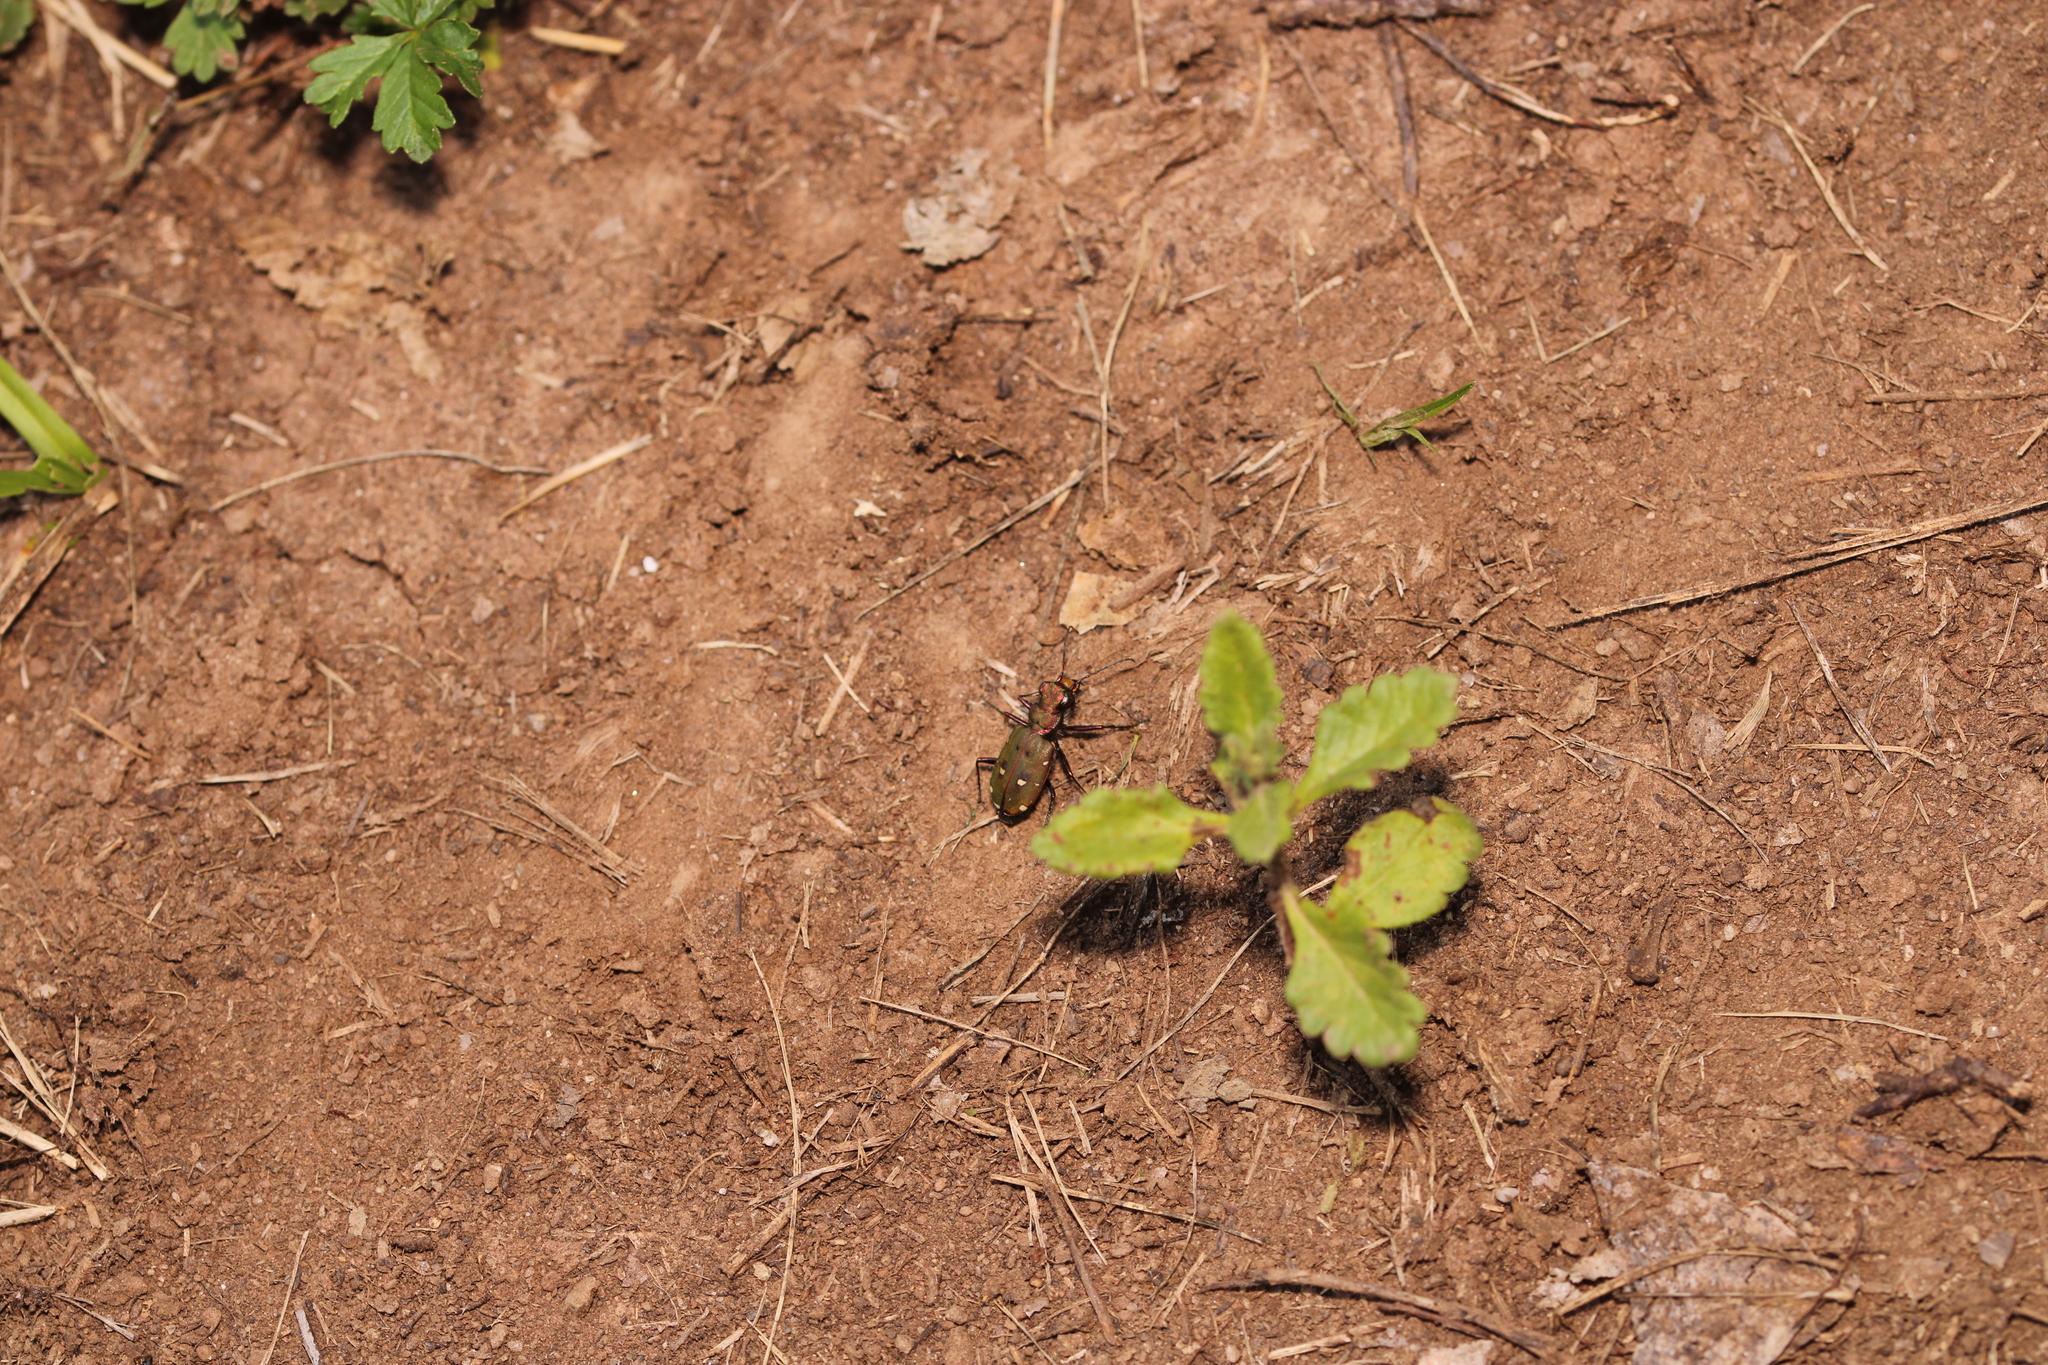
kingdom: Animalia
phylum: Arthropoda
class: Insecta
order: Coleoptera
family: Carabidae
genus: Cicindela
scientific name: Cicindela campestris
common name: Common tiger beetle
